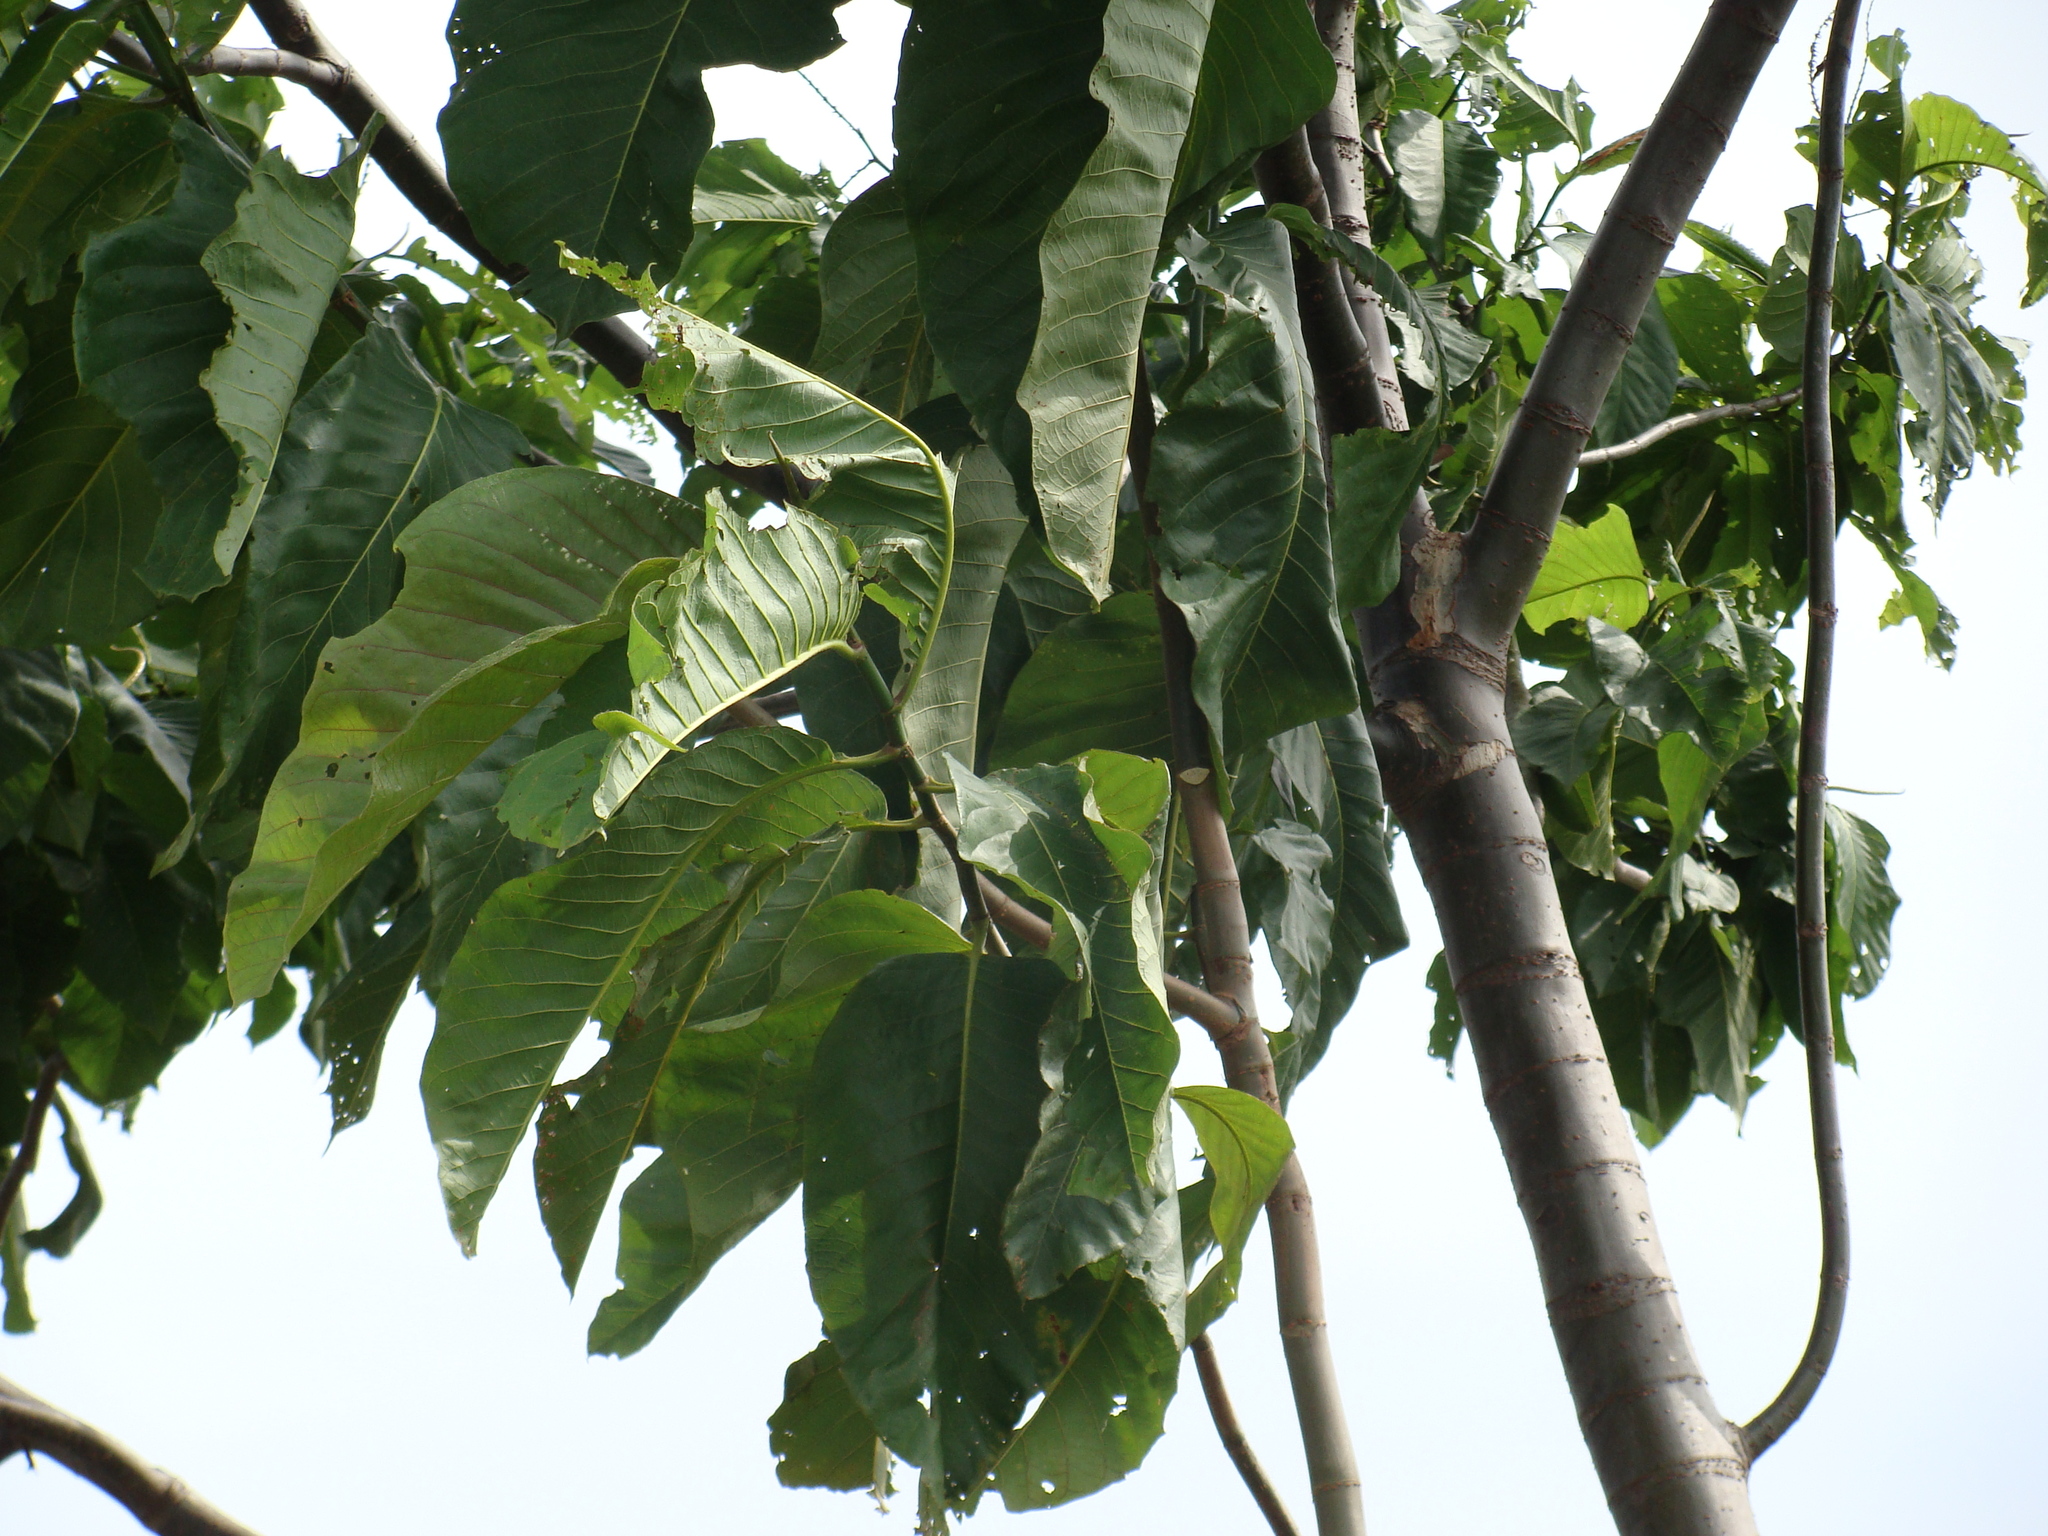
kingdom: Plantae
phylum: Tracheophyta
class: Magnoliopsida
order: Caryophyllales
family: Polygonaceae
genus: Triplaris
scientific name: Triplaris melaenodendron
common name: Long john
